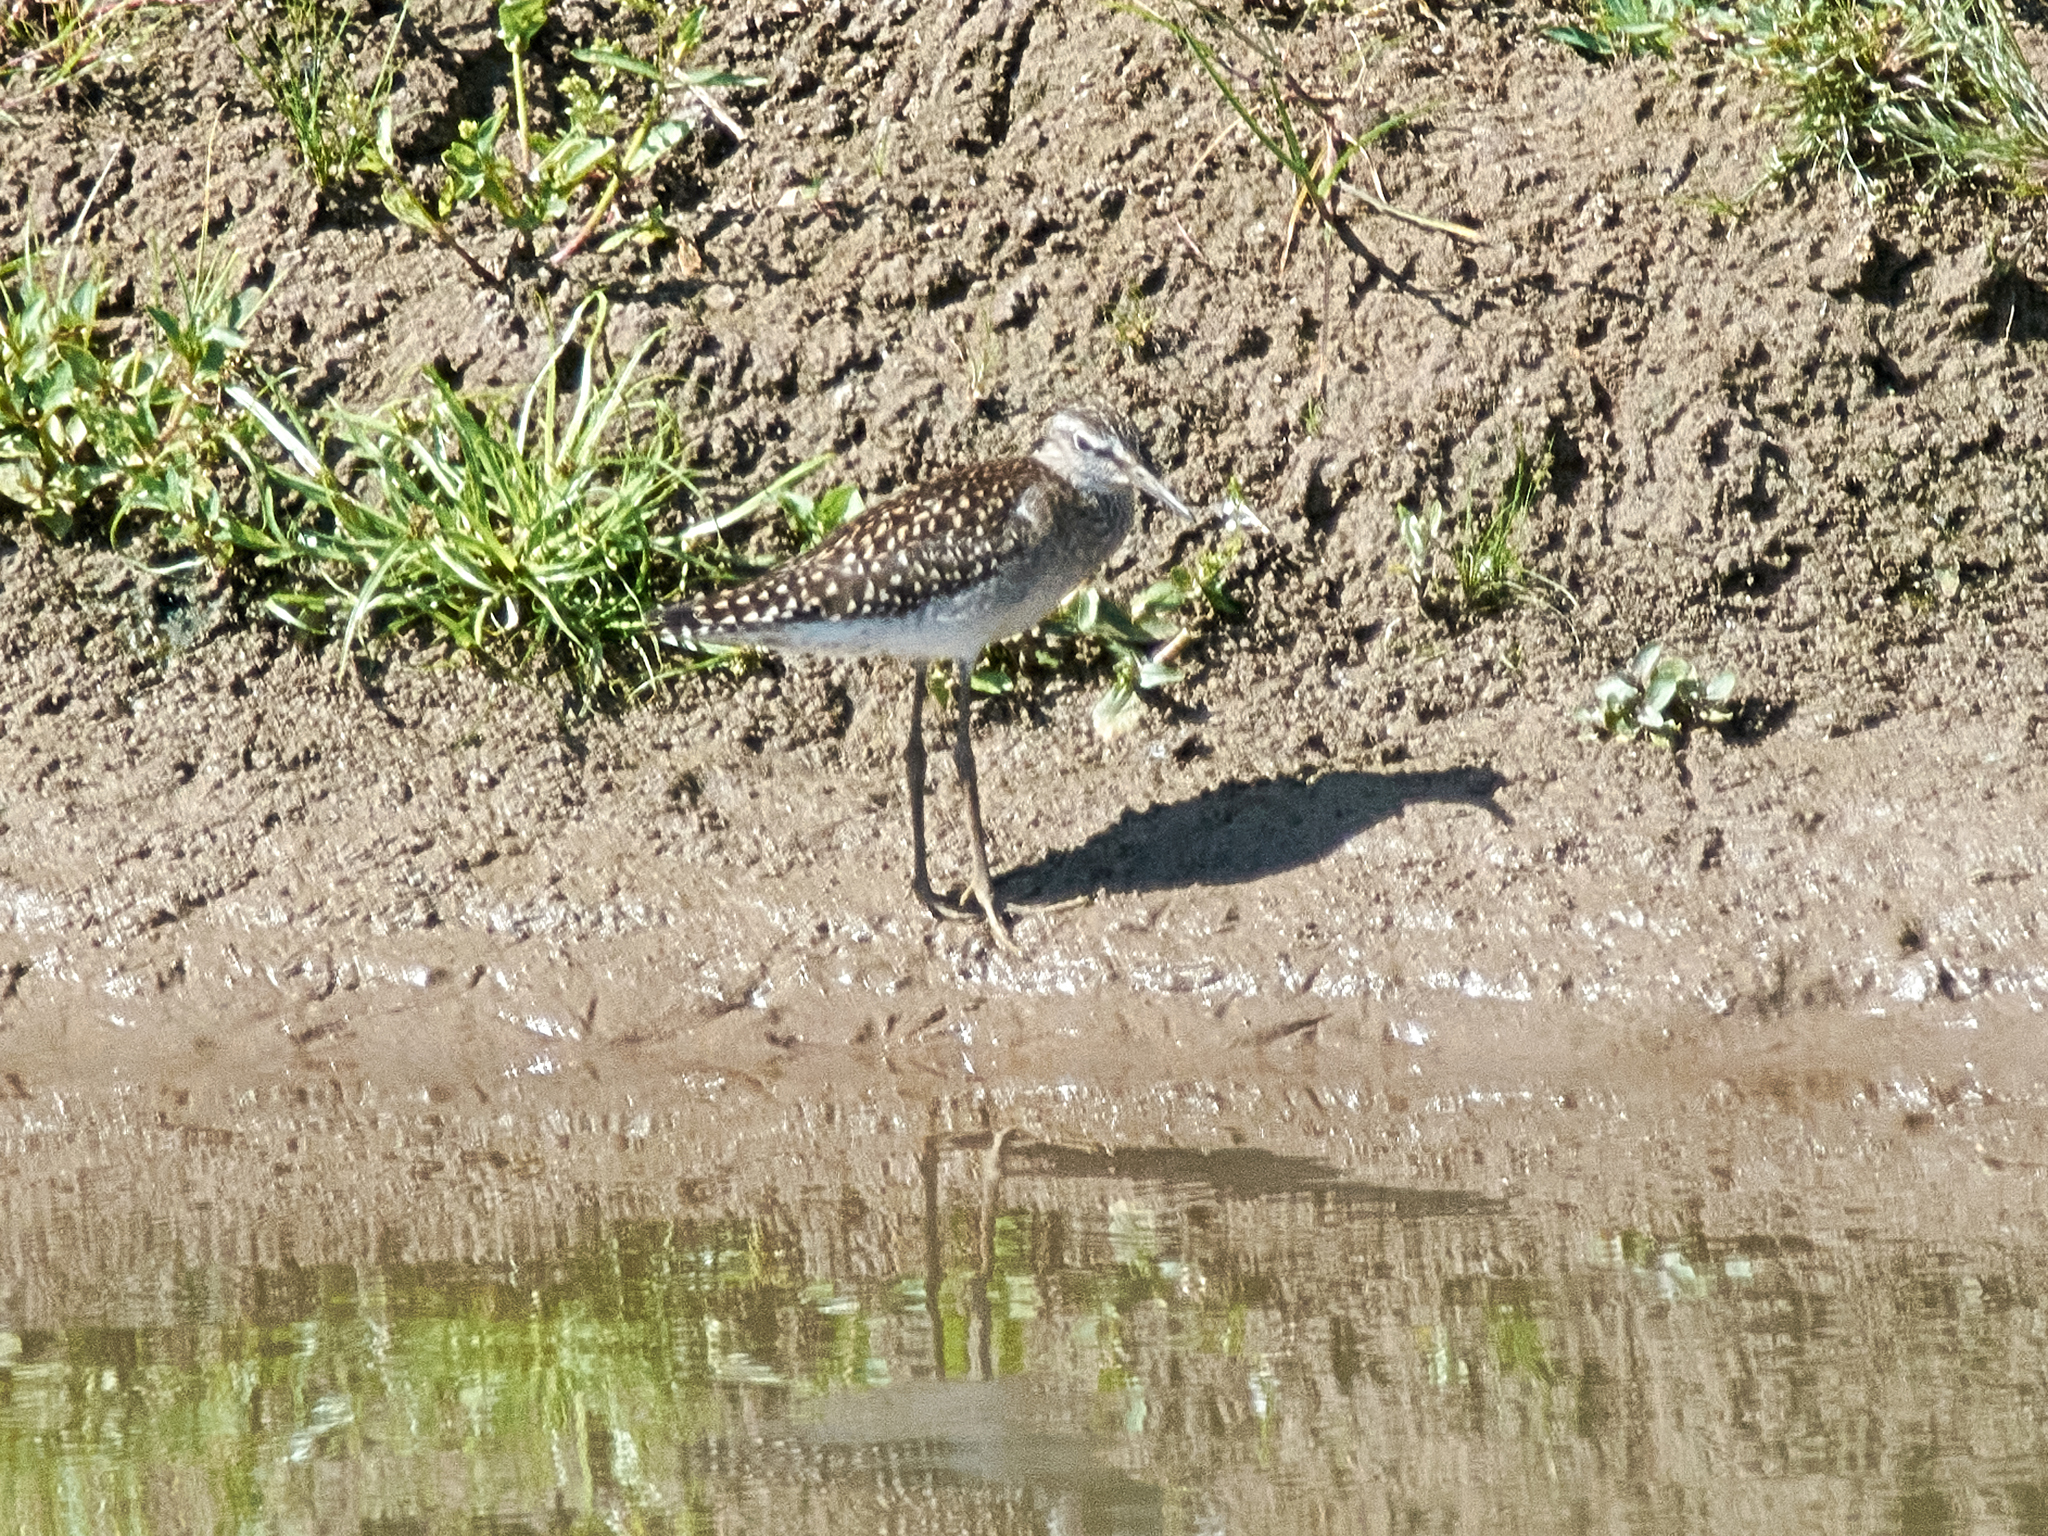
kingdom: Animalia
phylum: Chordata
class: Aves
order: Charadriiformes
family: Scolopacidae
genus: Tringa
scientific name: Tringa glareola
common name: Wood sandpiper
